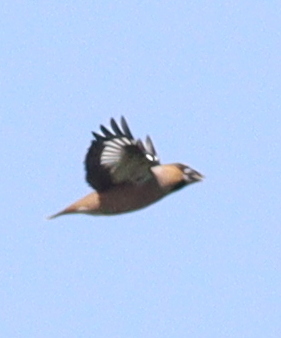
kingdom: Animalia
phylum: Chordata
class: Aves
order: Passeriformes
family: Fringillidae
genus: Coccothraustes
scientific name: Coccothraustes coccothraustes
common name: Hawfinch
